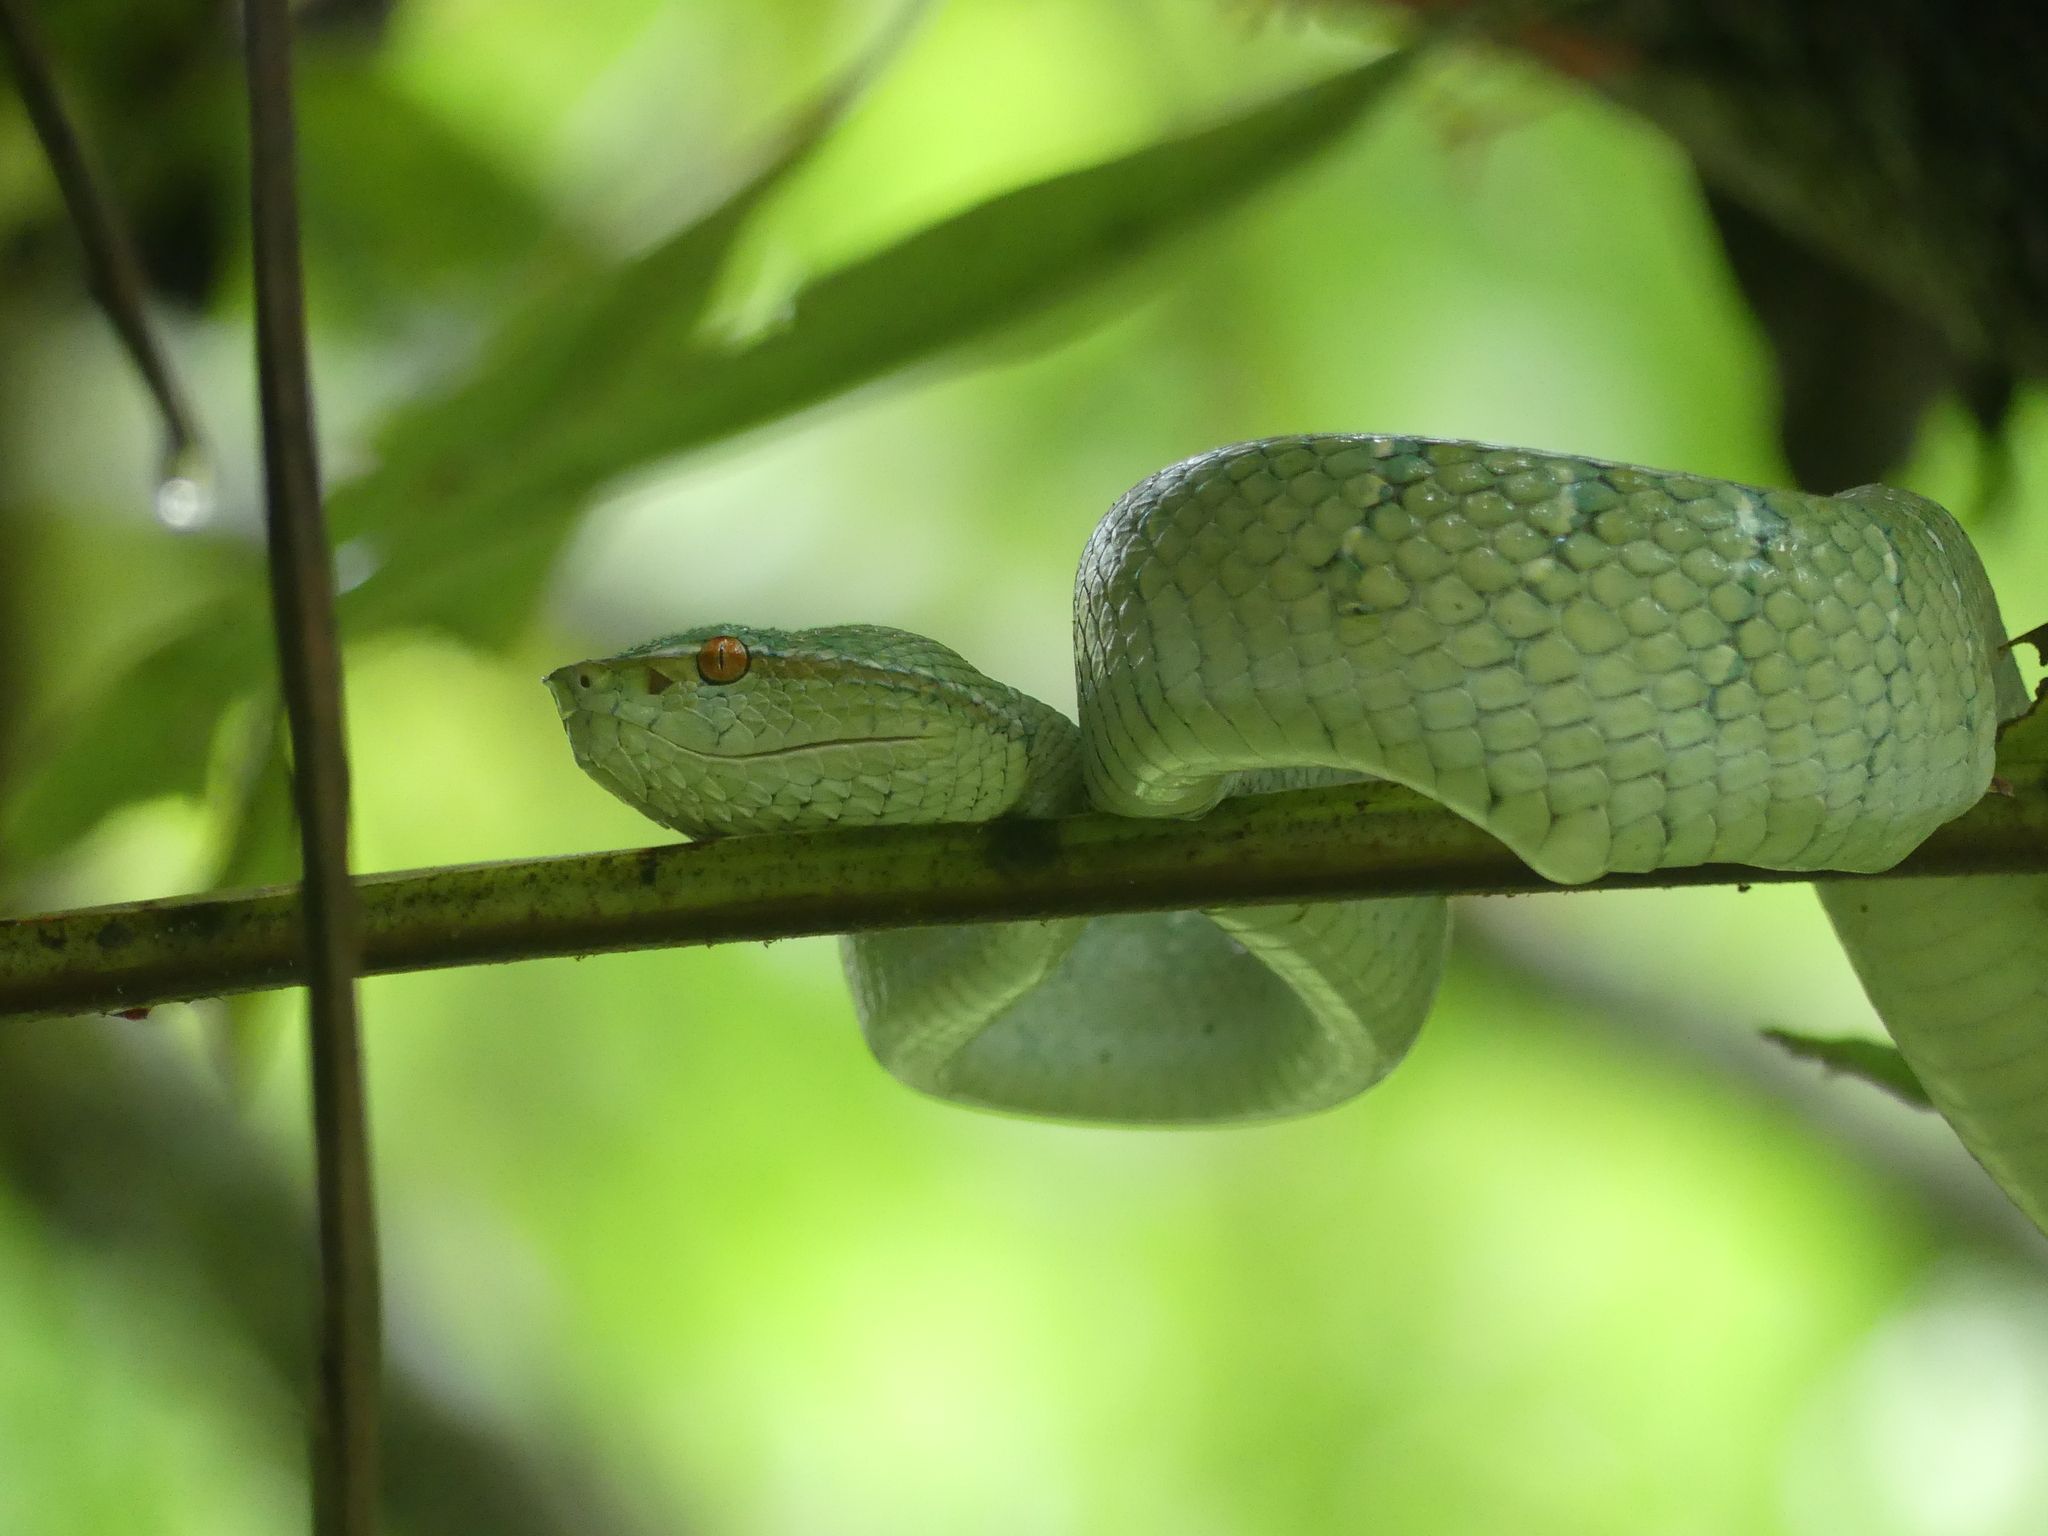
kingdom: Animalia
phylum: Chordata
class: Squamata
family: Viperidae
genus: Tropidolaemus
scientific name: Tropidolaemus subannulatus
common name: North philippine temple pitviper
